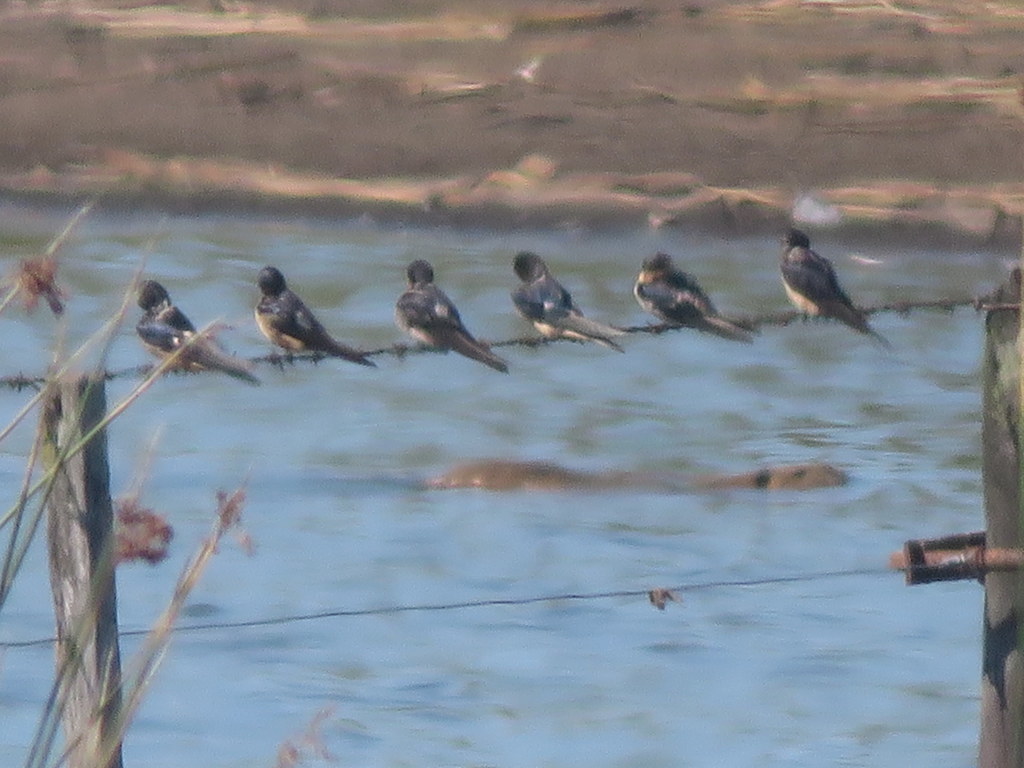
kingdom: Animalia
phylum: Chordata
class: Aves
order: Passeriformes
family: Hirundinidae
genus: Hirundo
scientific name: Hirundo rustica
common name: Barn swallow
